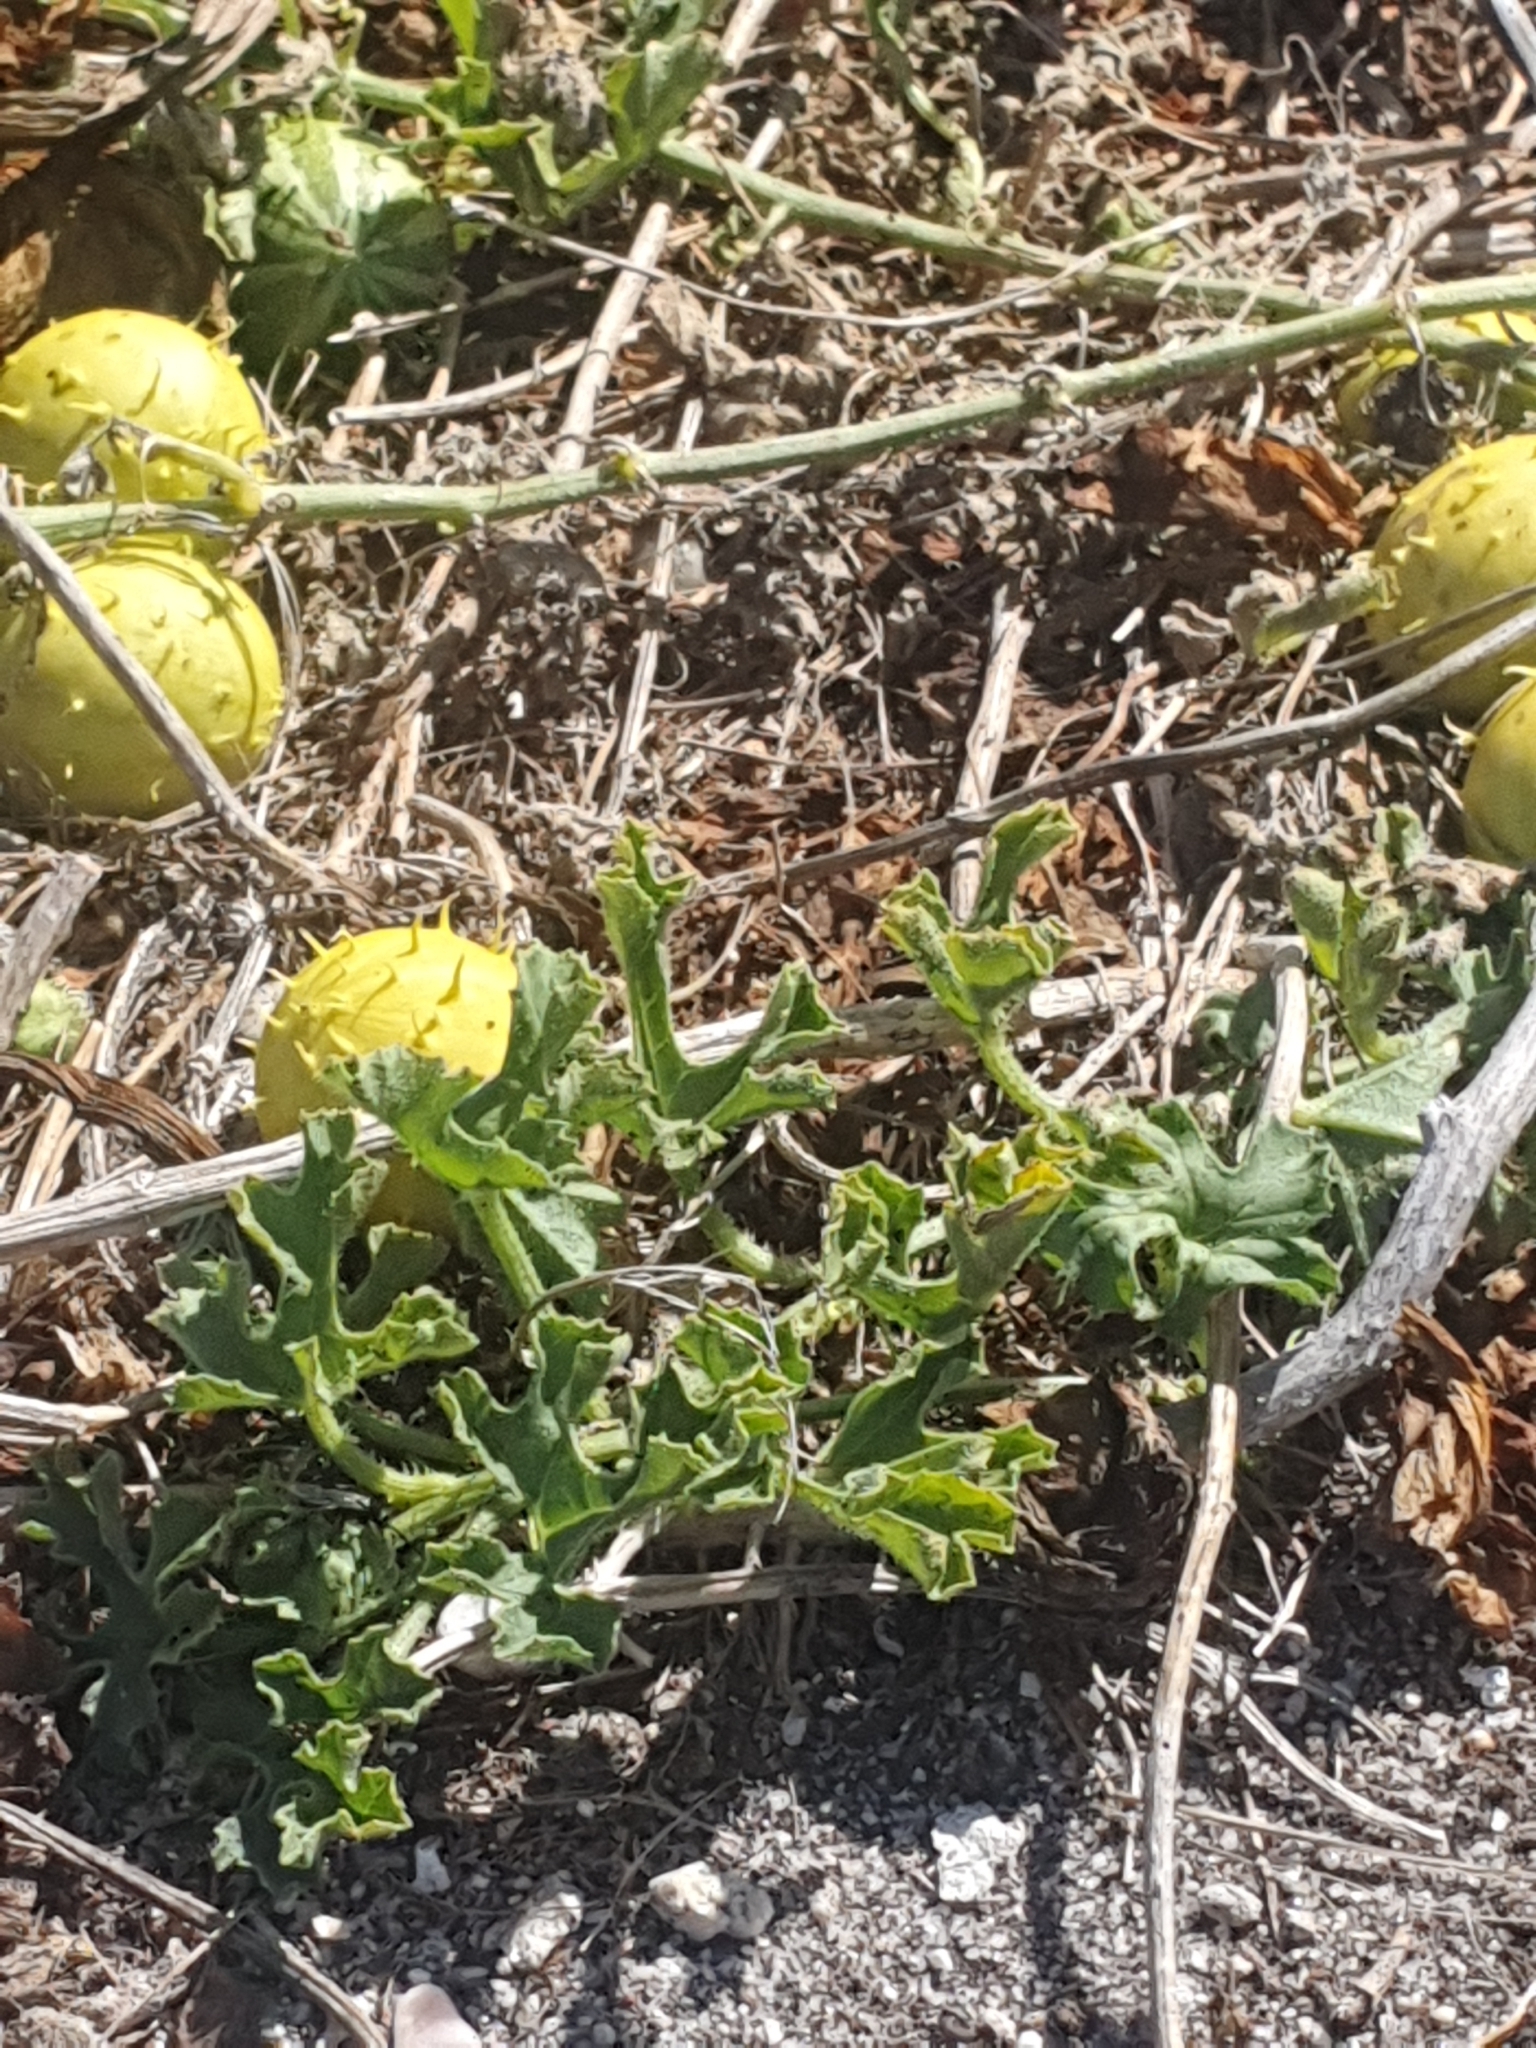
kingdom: Plantae
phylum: Tracheophyta
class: Magnoliopsida
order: Cucurbitales
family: Cucurbitaceae
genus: Cucumis
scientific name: Cucumis myriocarpus
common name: Gooseberry cucumber
